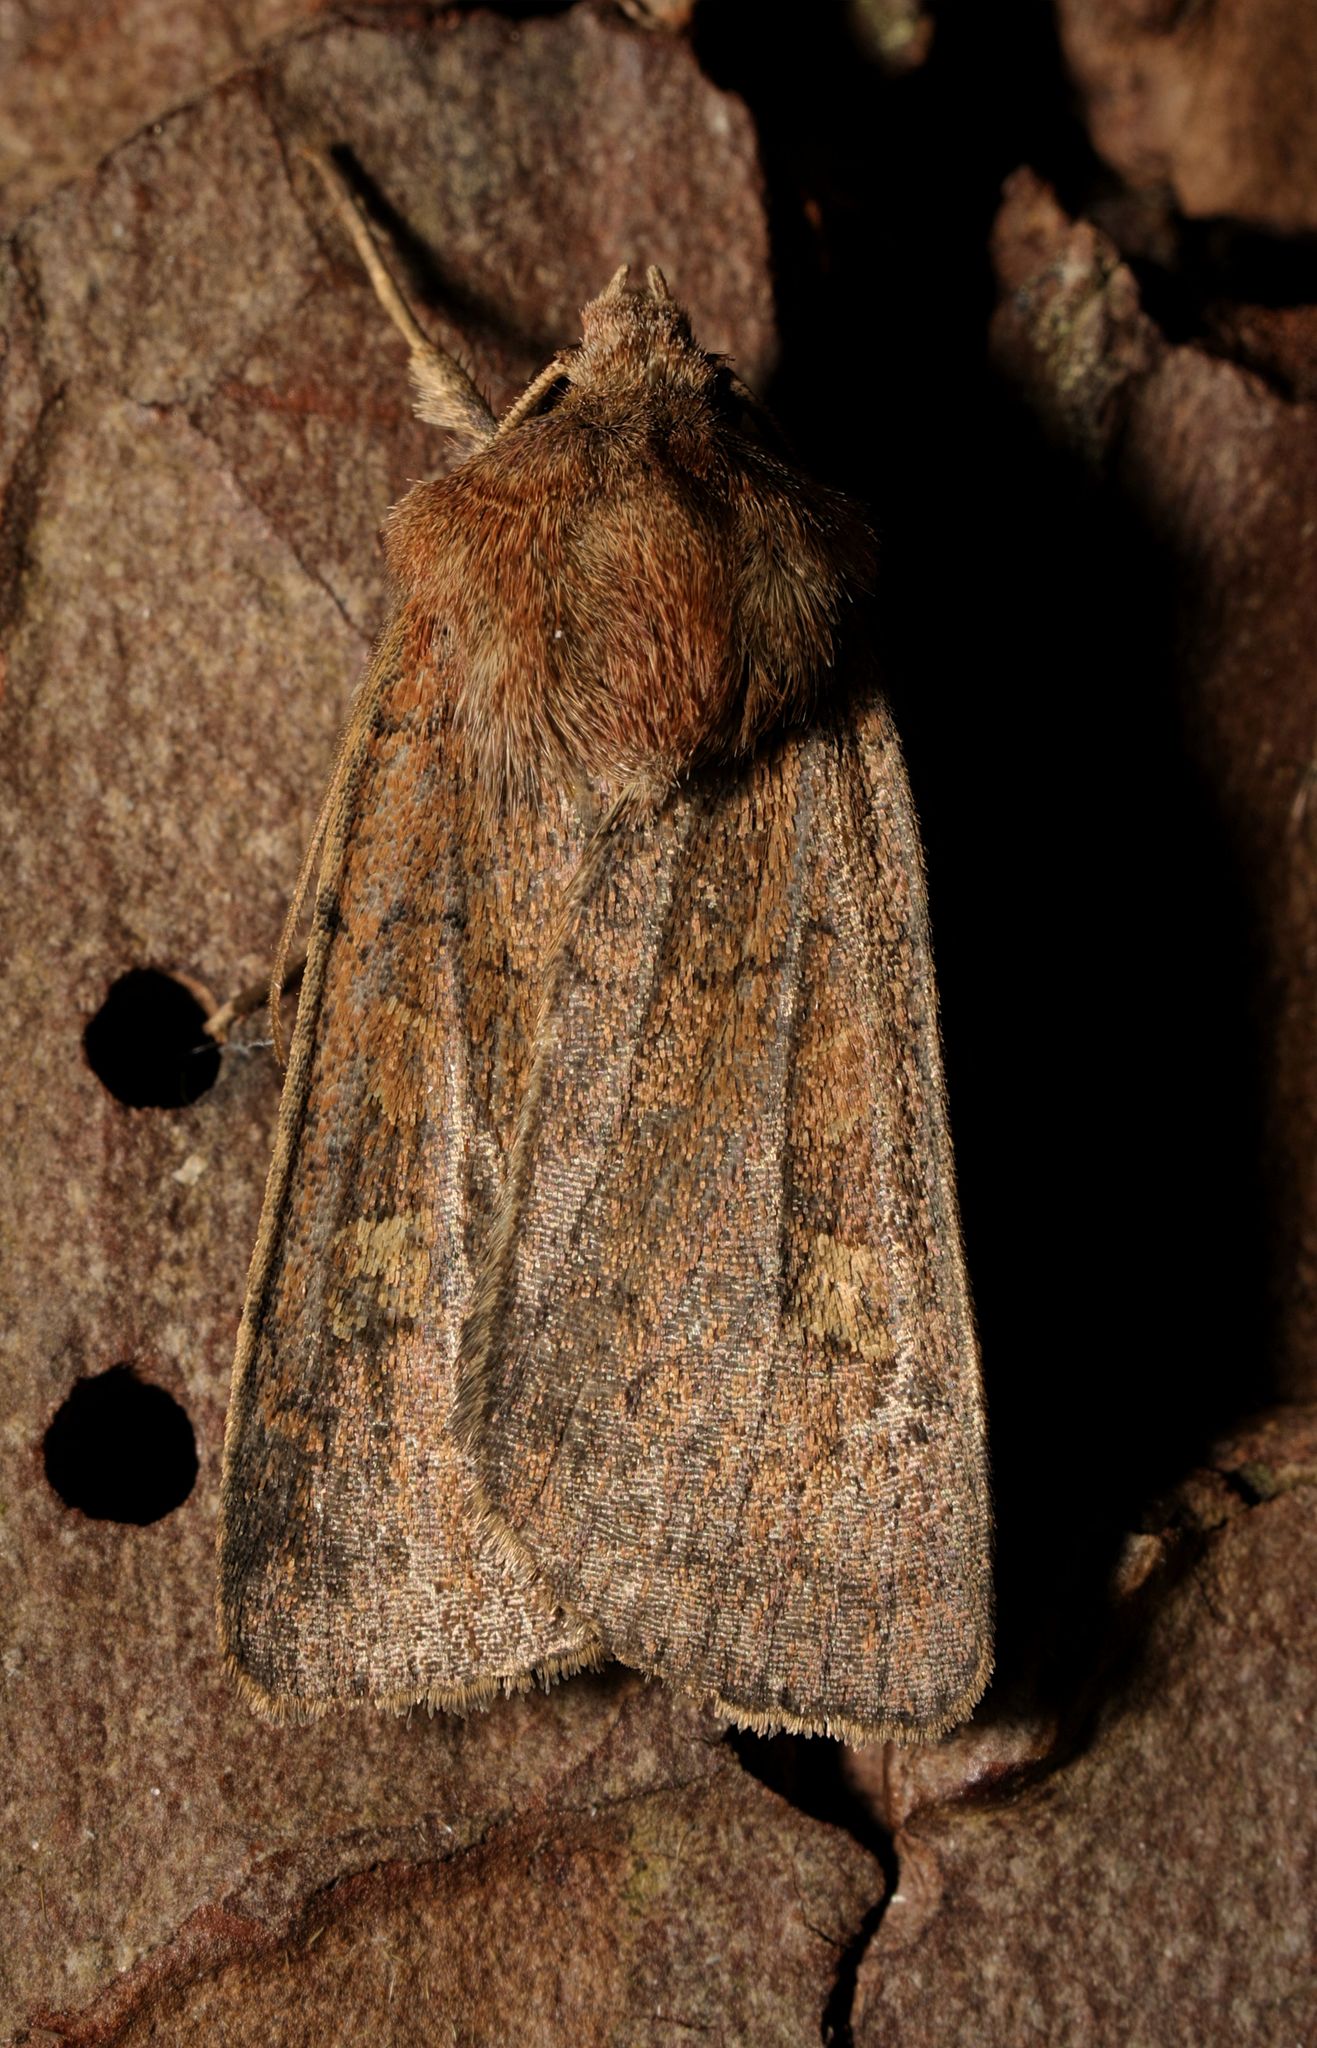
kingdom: Animalia
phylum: Arthropoda
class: Insecta
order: Lepidoptera
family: Noctuidae
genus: Xestia
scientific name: Xestia xanthographa
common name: Square-spot rustic
